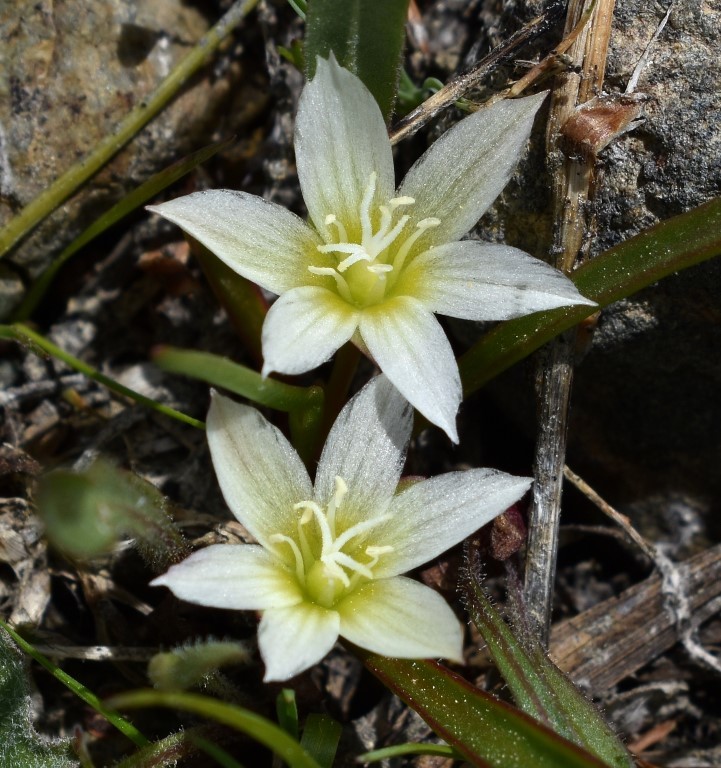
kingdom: Plantae
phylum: Tracheophyta
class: Magnoliopsida
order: Caryophyllales
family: Montiaceae
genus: Lewisia
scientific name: Lewisia nevadensis
